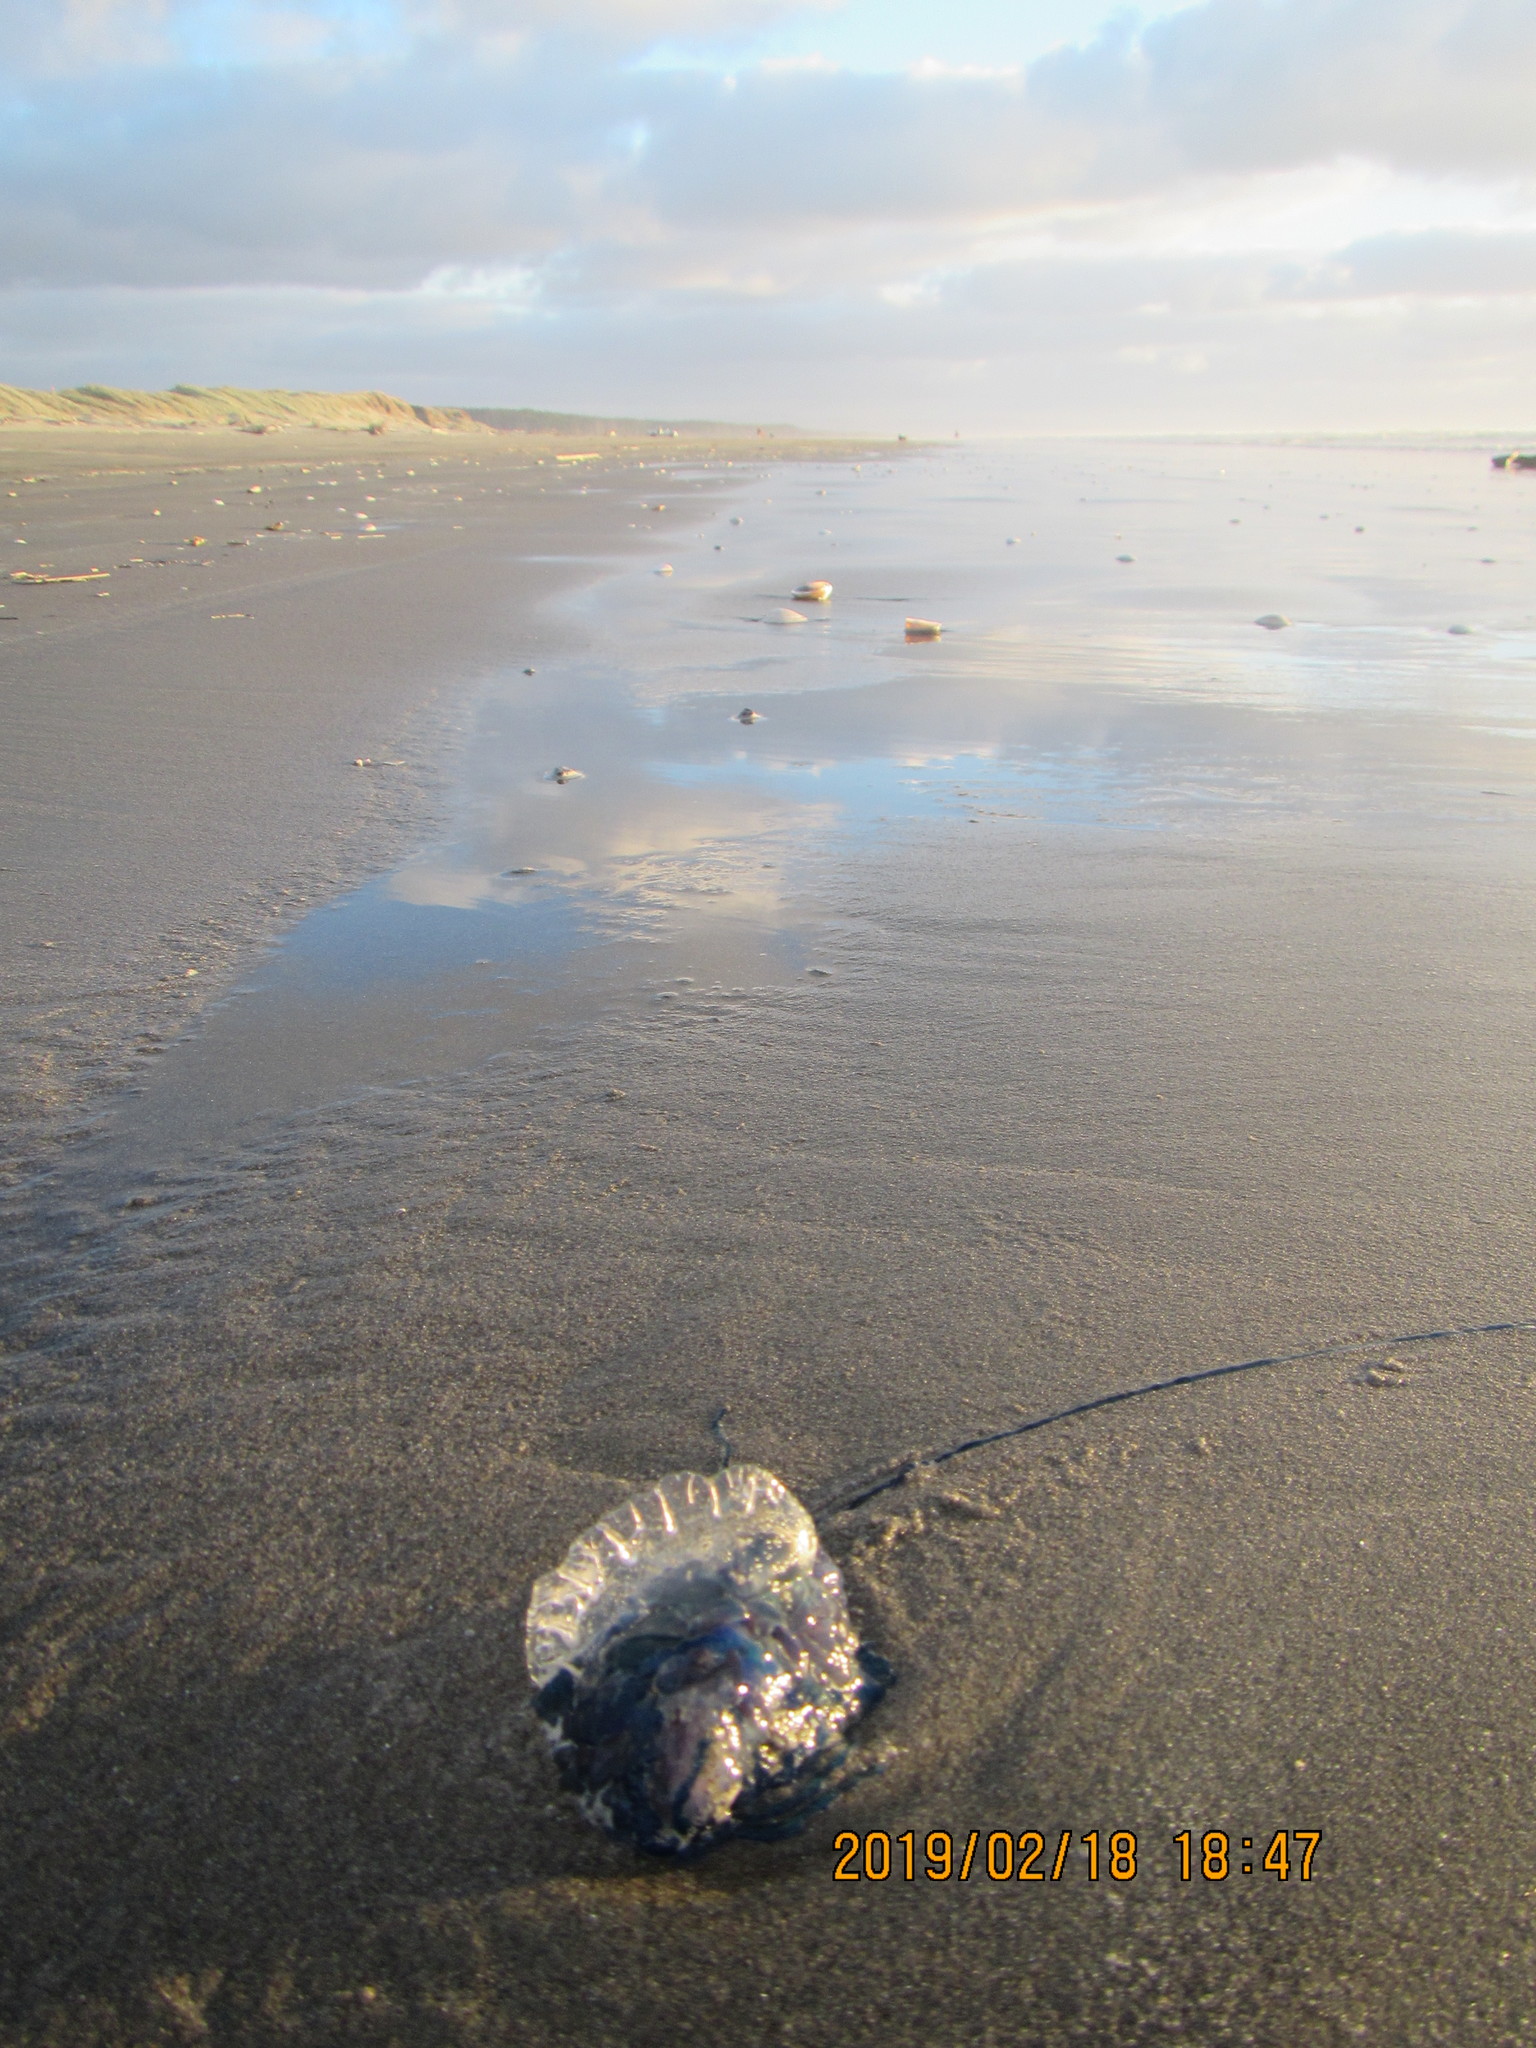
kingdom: Animalia
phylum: Cnidaria
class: Hydrozoa
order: Siphonophorae
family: Physaliidae
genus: Physalia
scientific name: Physalia physalis
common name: Portuguese man-of-war
